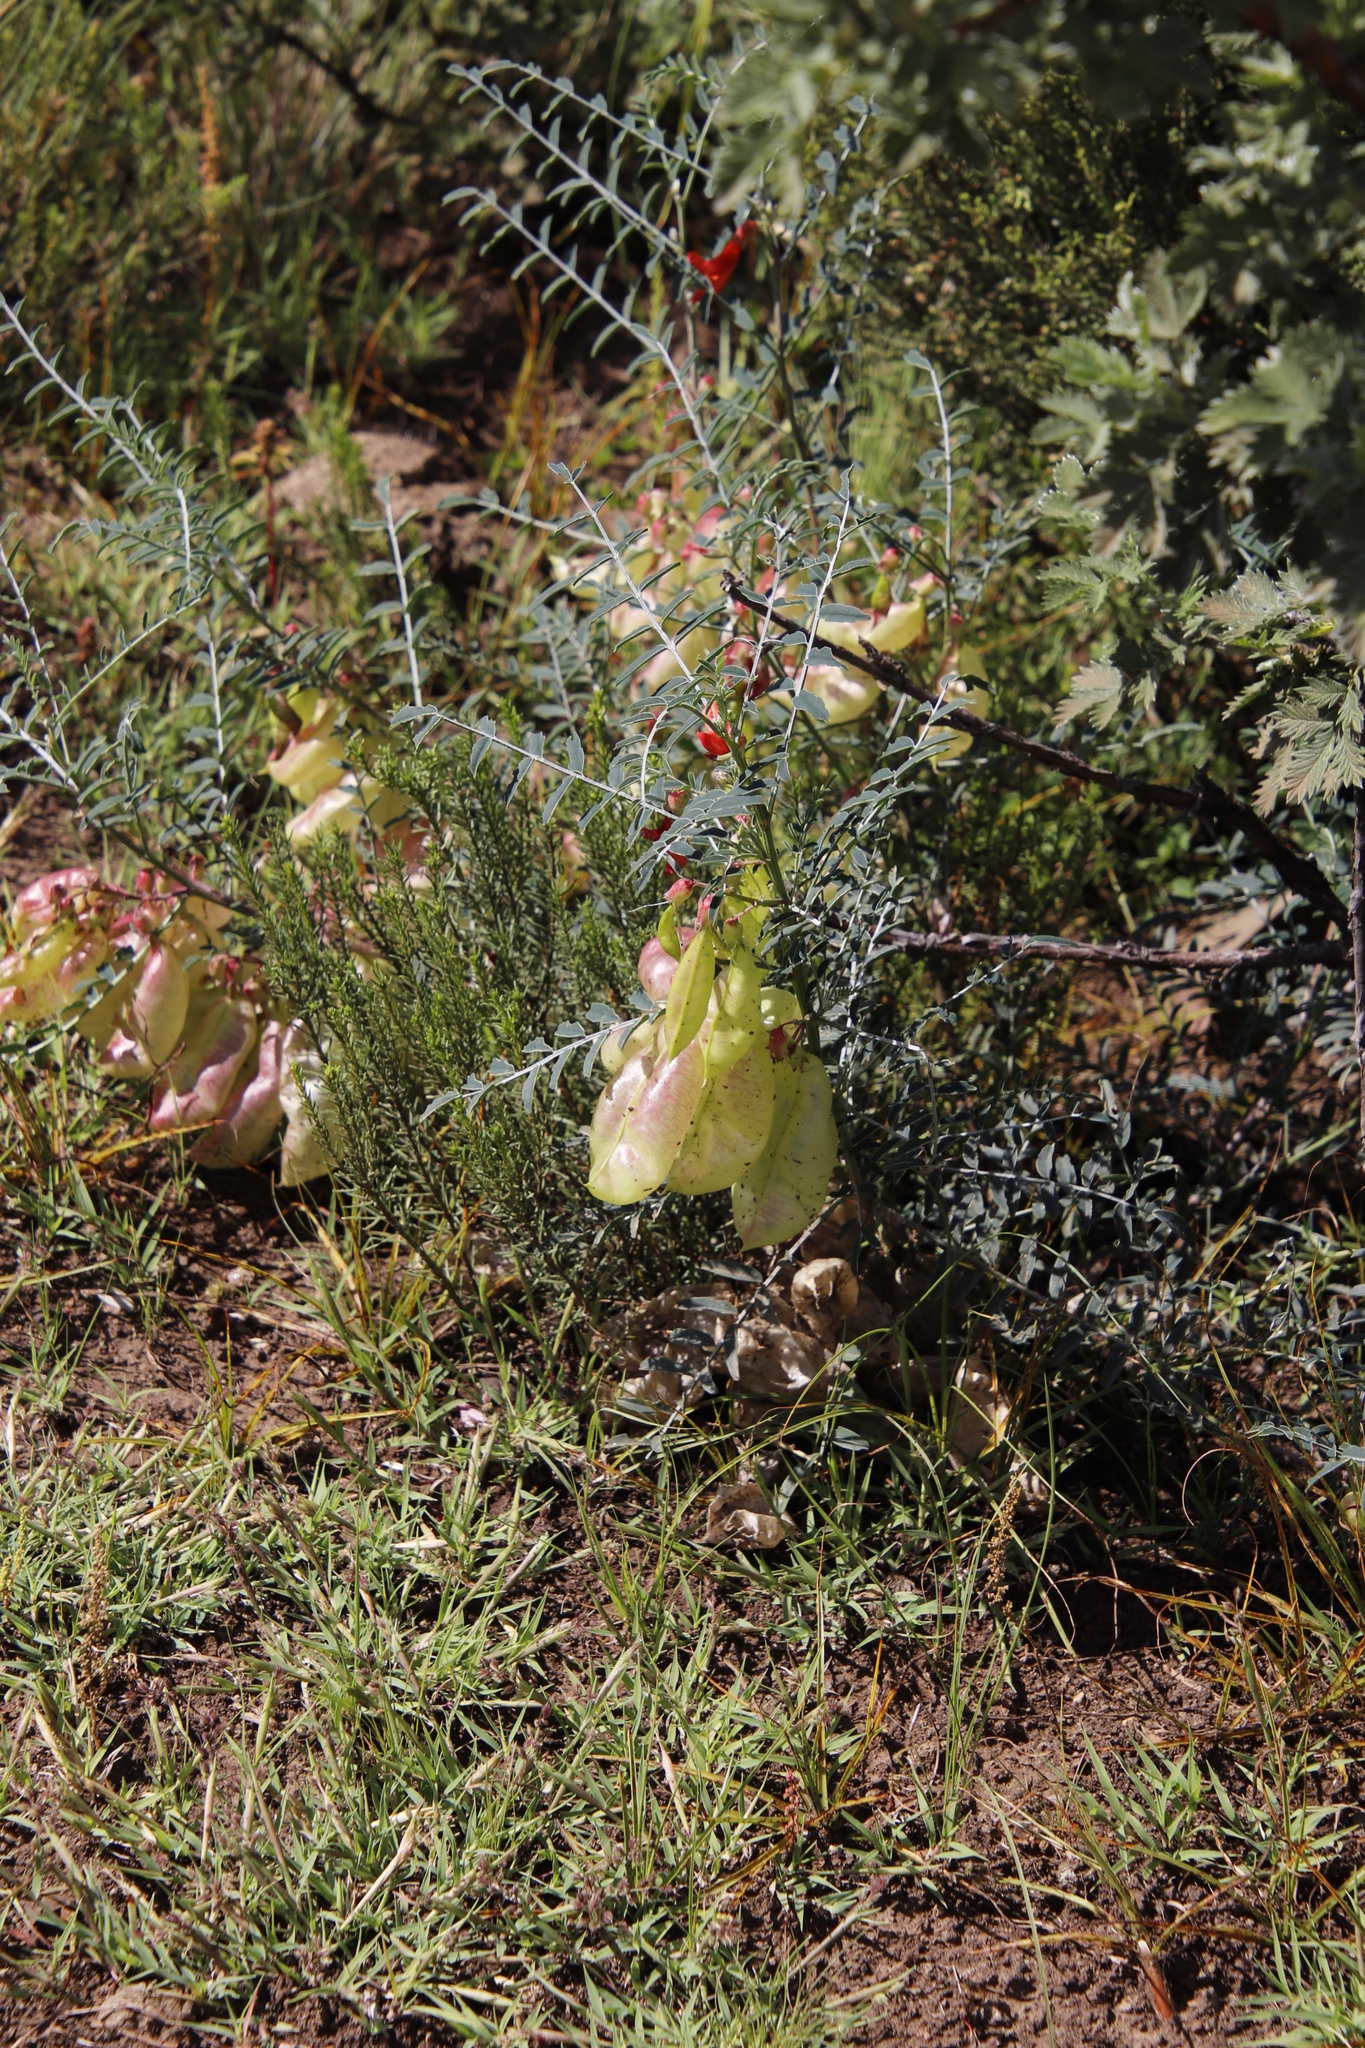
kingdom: Plantae
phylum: Tracheophyta
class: Magnoliopsida
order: Fabales
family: Fabaceae
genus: Lessertia
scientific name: Lessertia frutescens
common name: Balloon-pea
